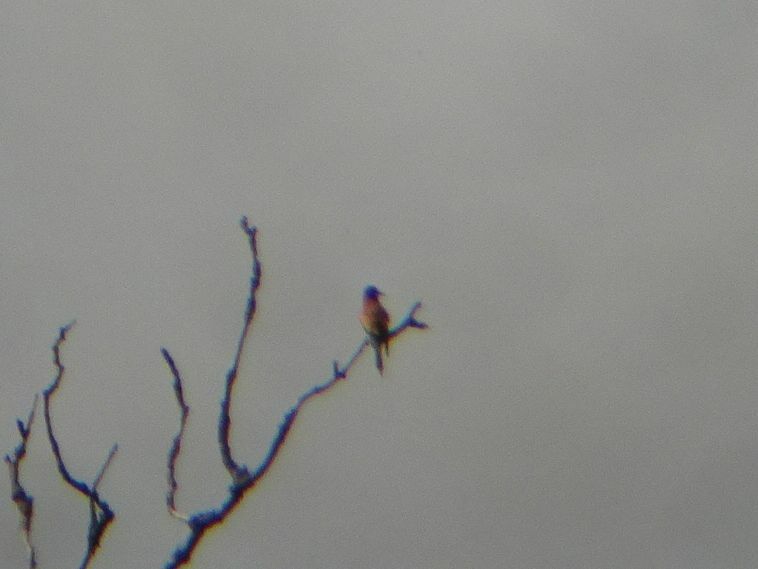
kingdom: Animalia
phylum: Chordata
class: Aves
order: Coraciiformes
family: Meropidae
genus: Merops
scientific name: Merops apiaster
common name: European bee-eater
